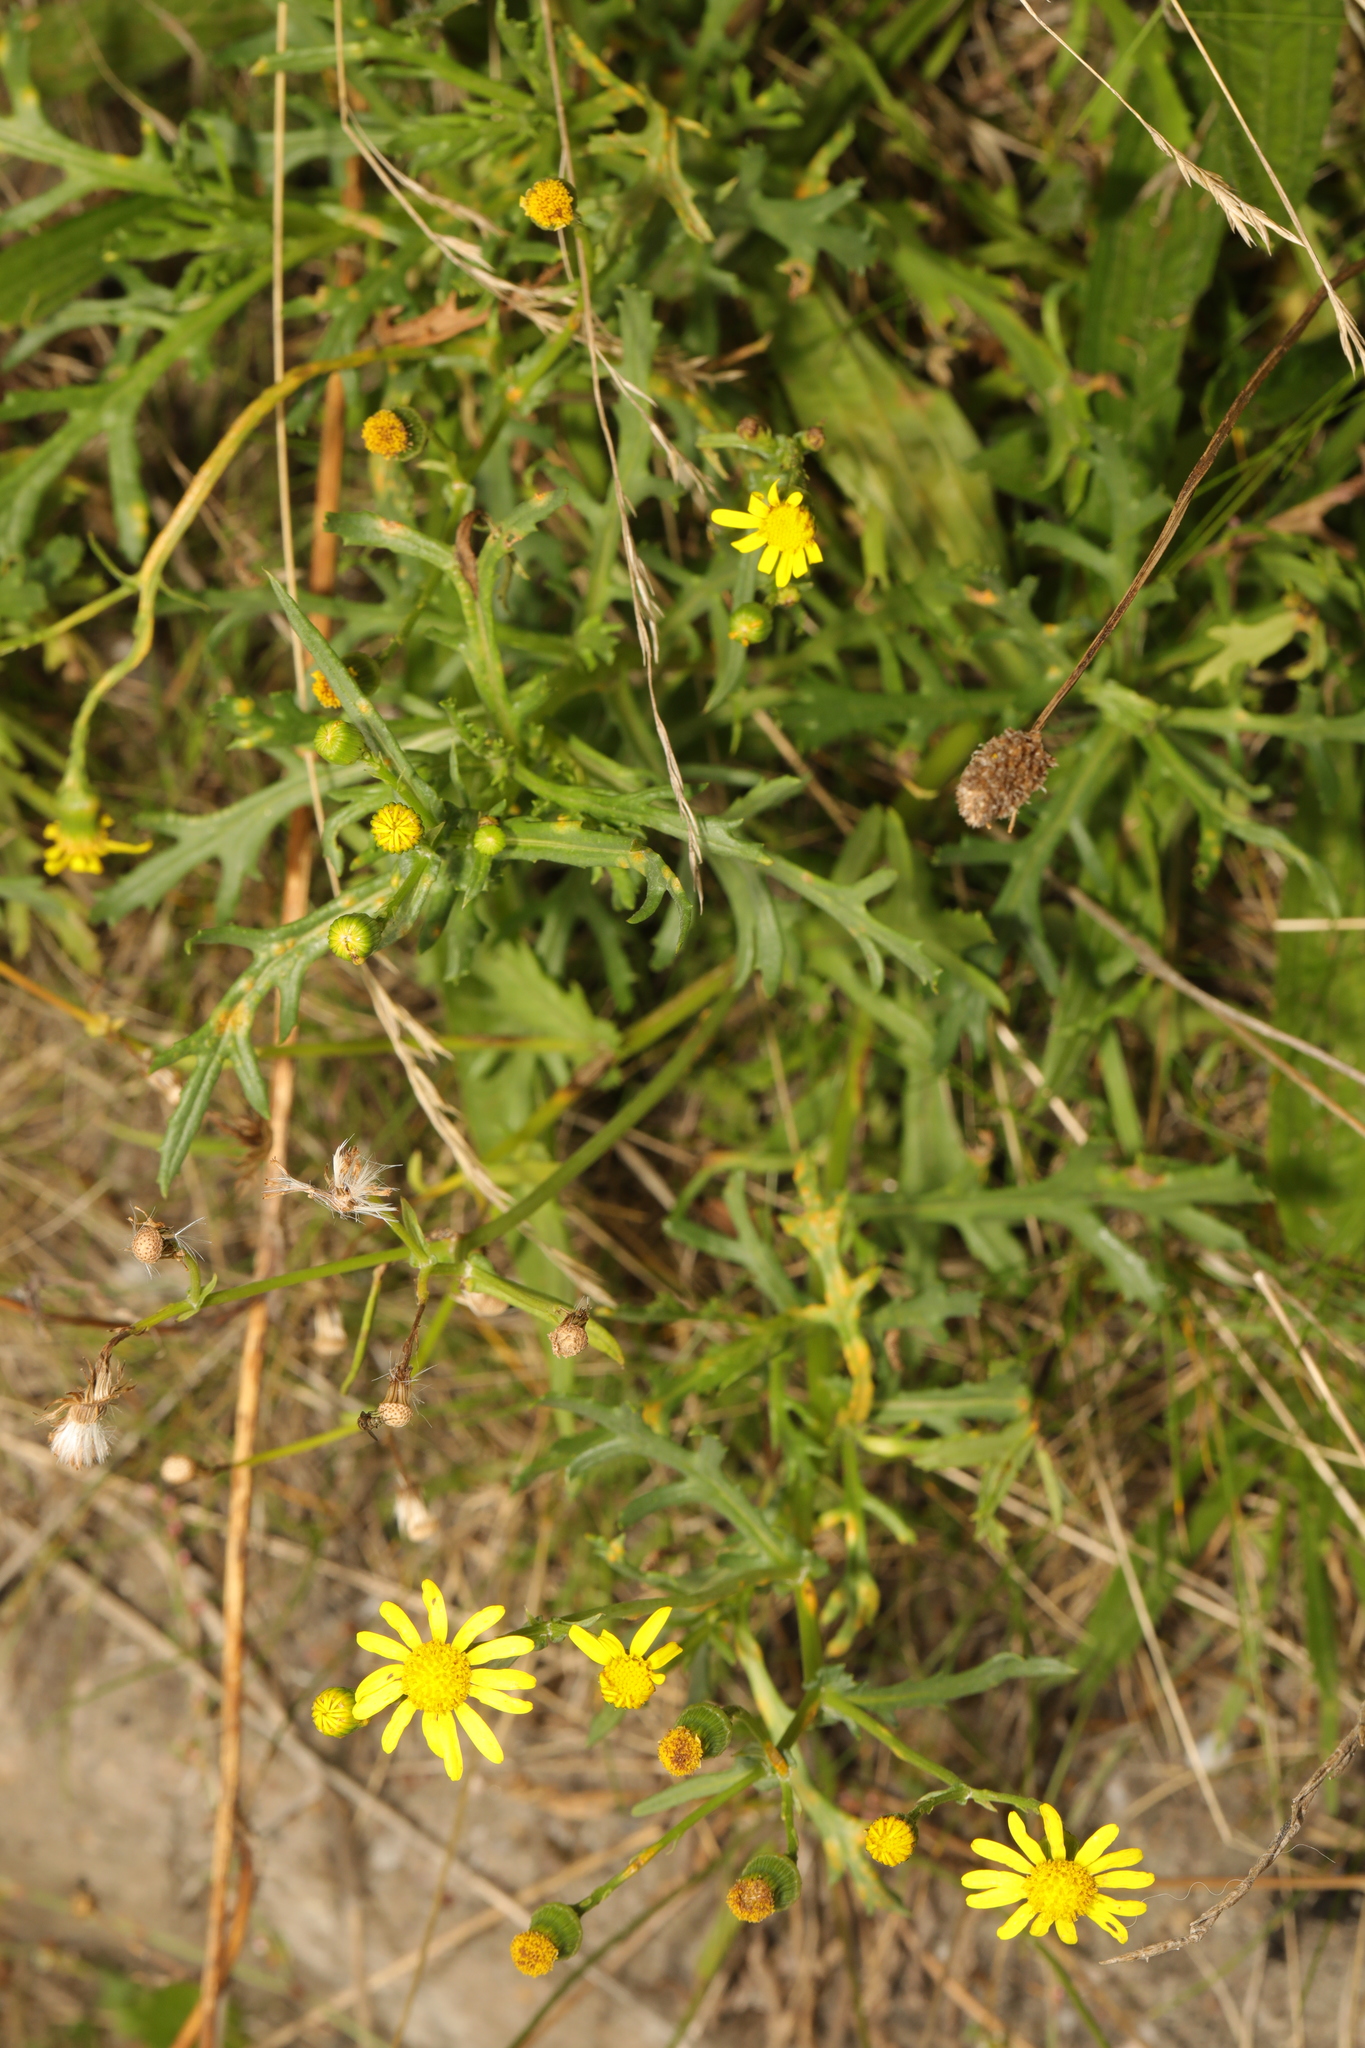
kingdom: Plantae
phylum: Tracheophyta
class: Magnoliopsida
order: Asterales
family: Asteraceae
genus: Senecio
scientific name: Senecio squalidus
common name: Oxford ragwort
